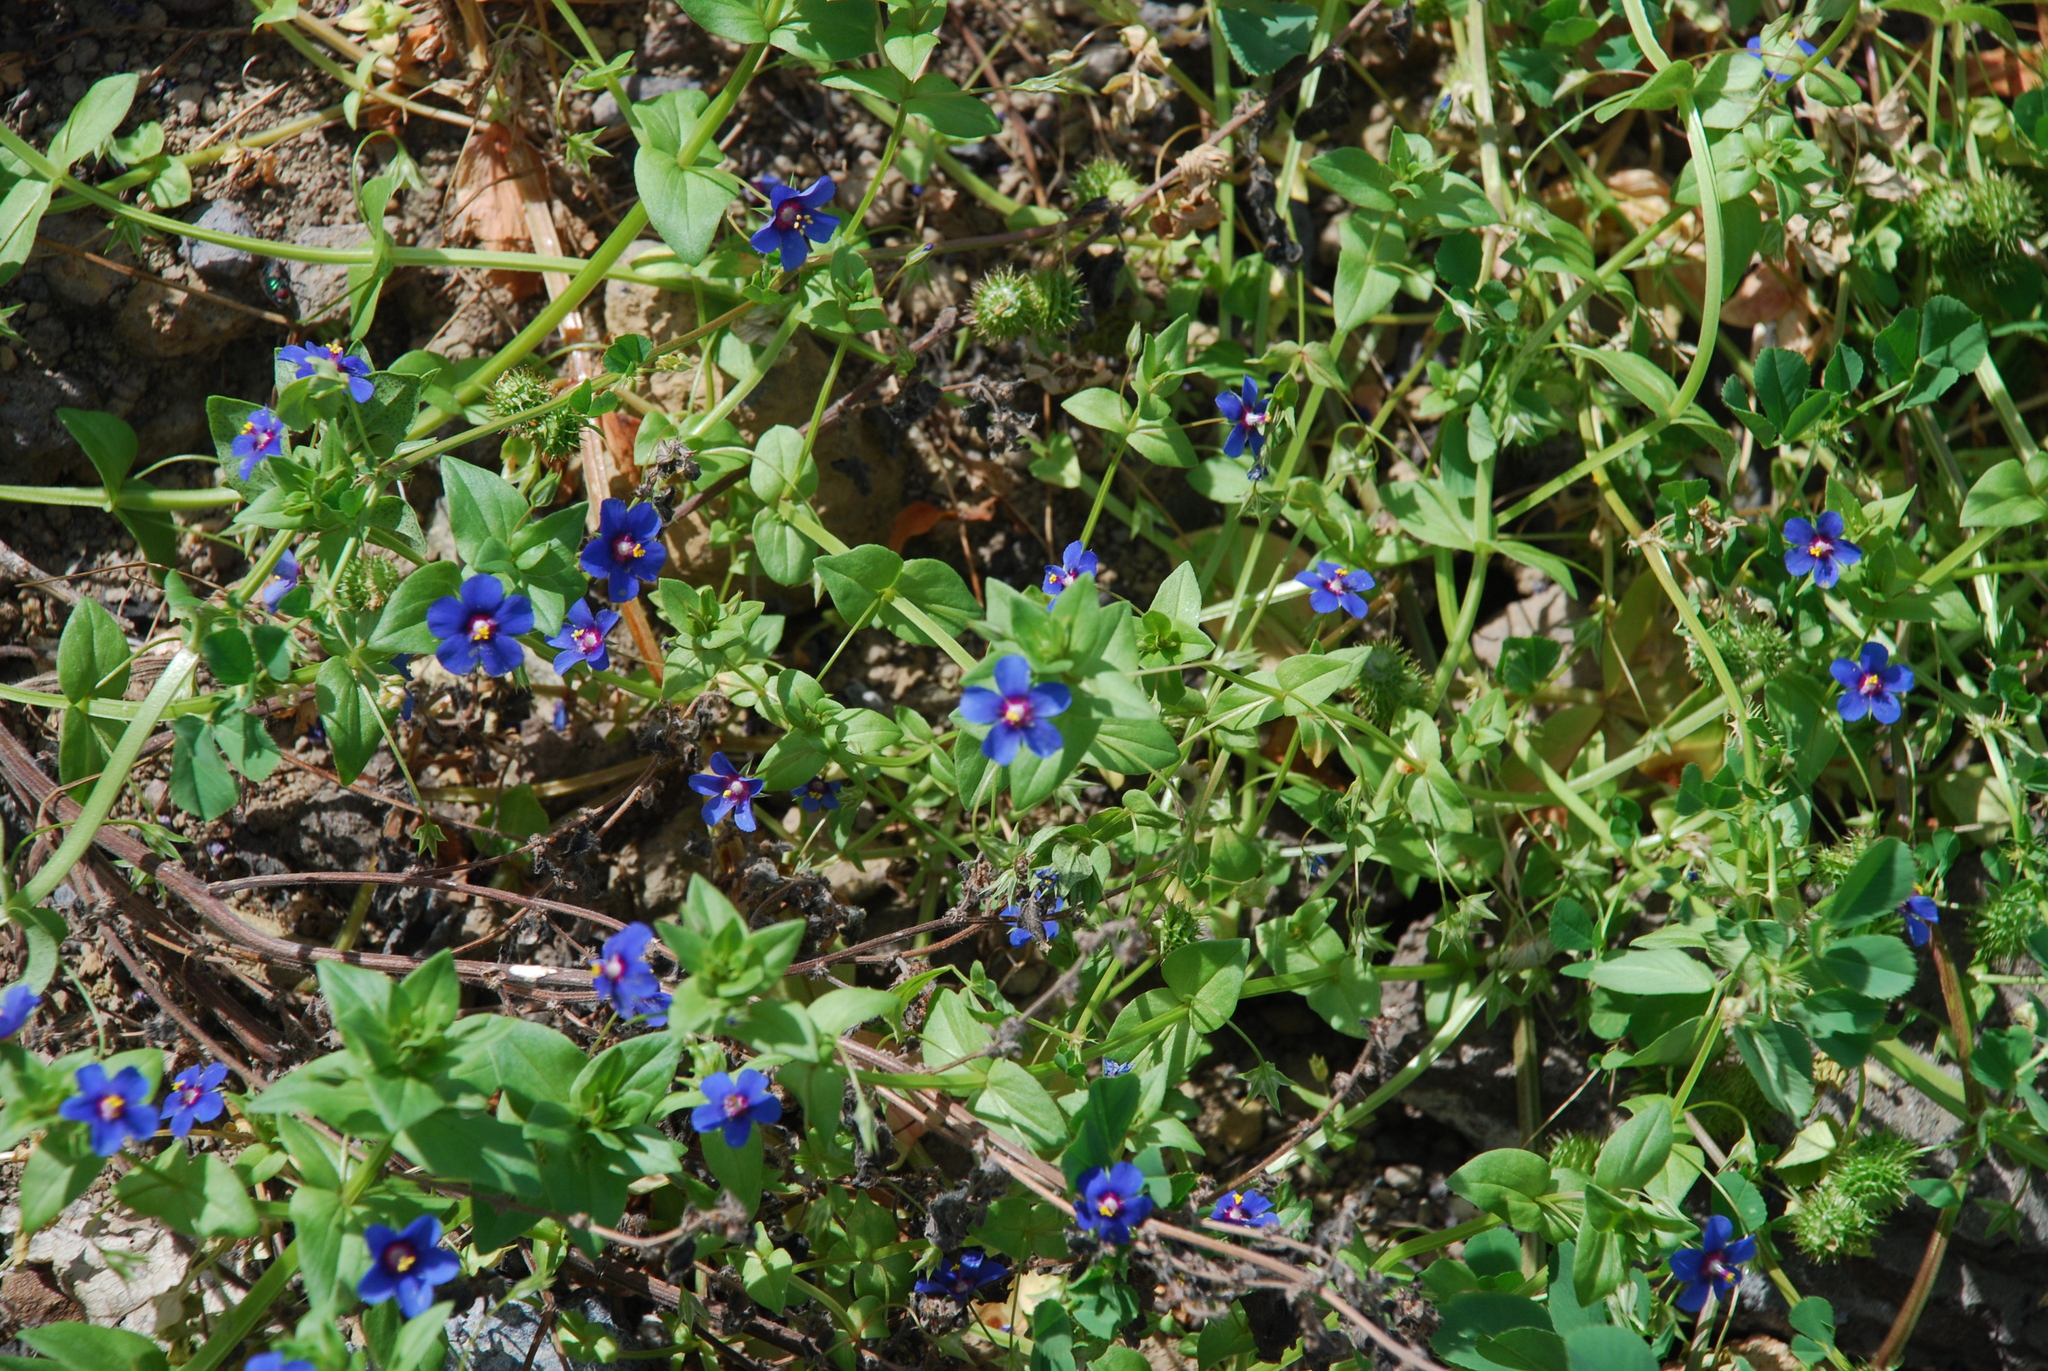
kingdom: Plantae
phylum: Tracheophyta
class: Magnoliopsida
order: Ericales
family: Primulaceae
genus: Lysimachia
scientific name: Lysimachia loeflingii
